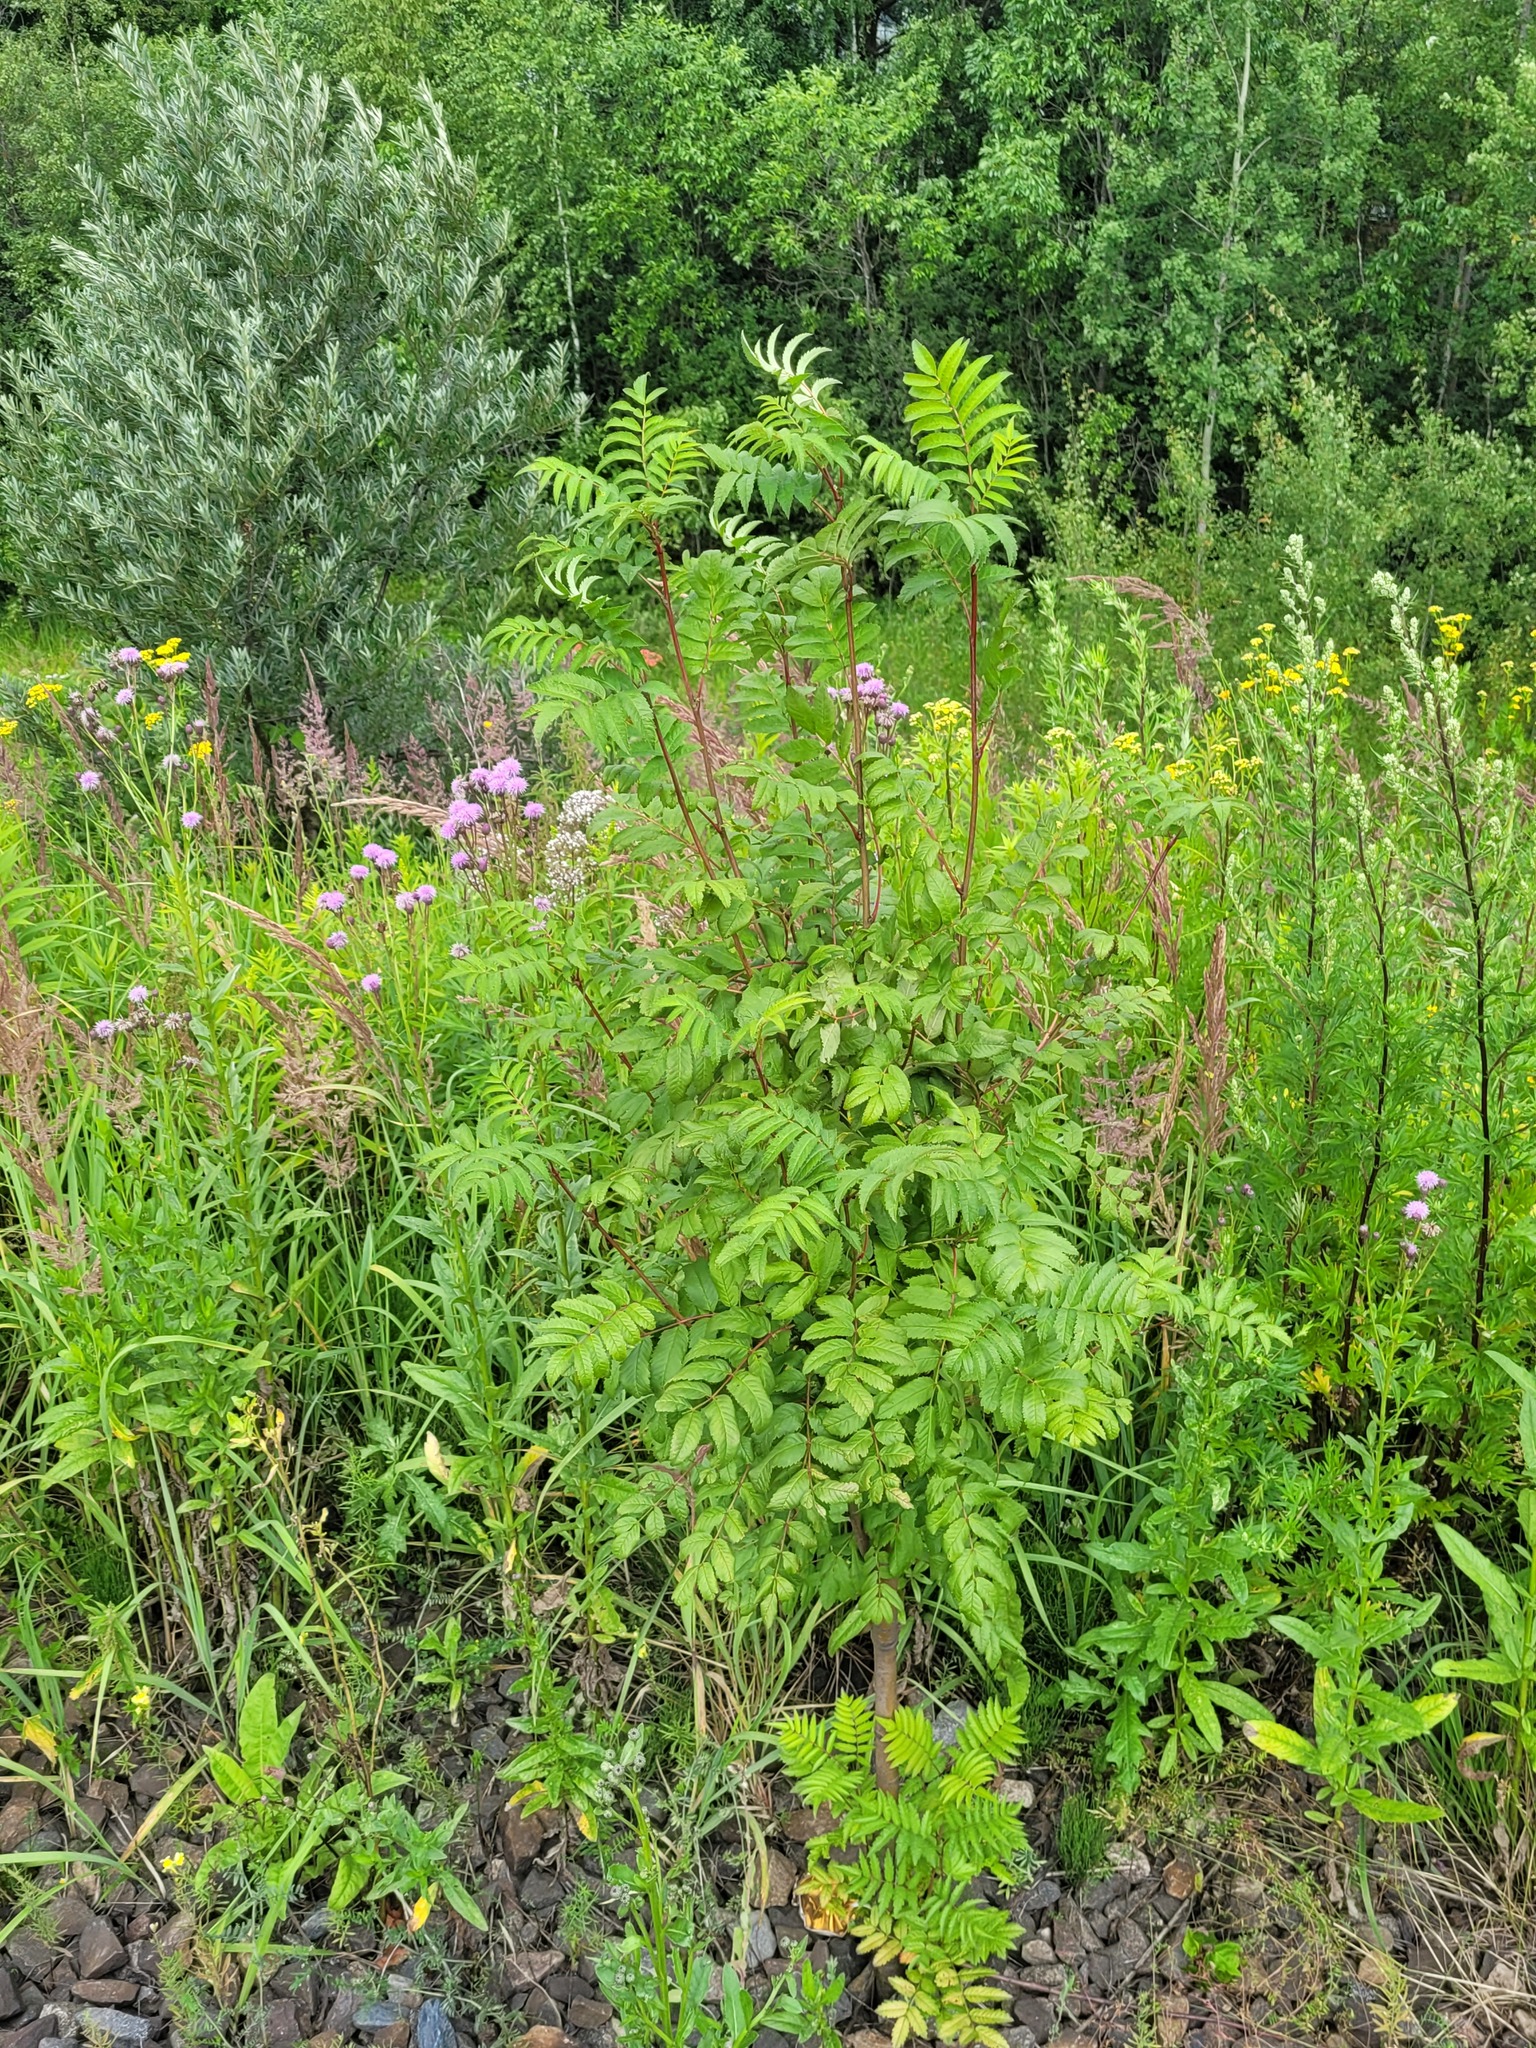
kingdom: Plantae
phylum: Tracheophyta
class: Magnoliopsida
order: Rosales
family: Rosaceae
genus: Sorbus
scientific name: Sorbus aucuparia
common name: Rowan
